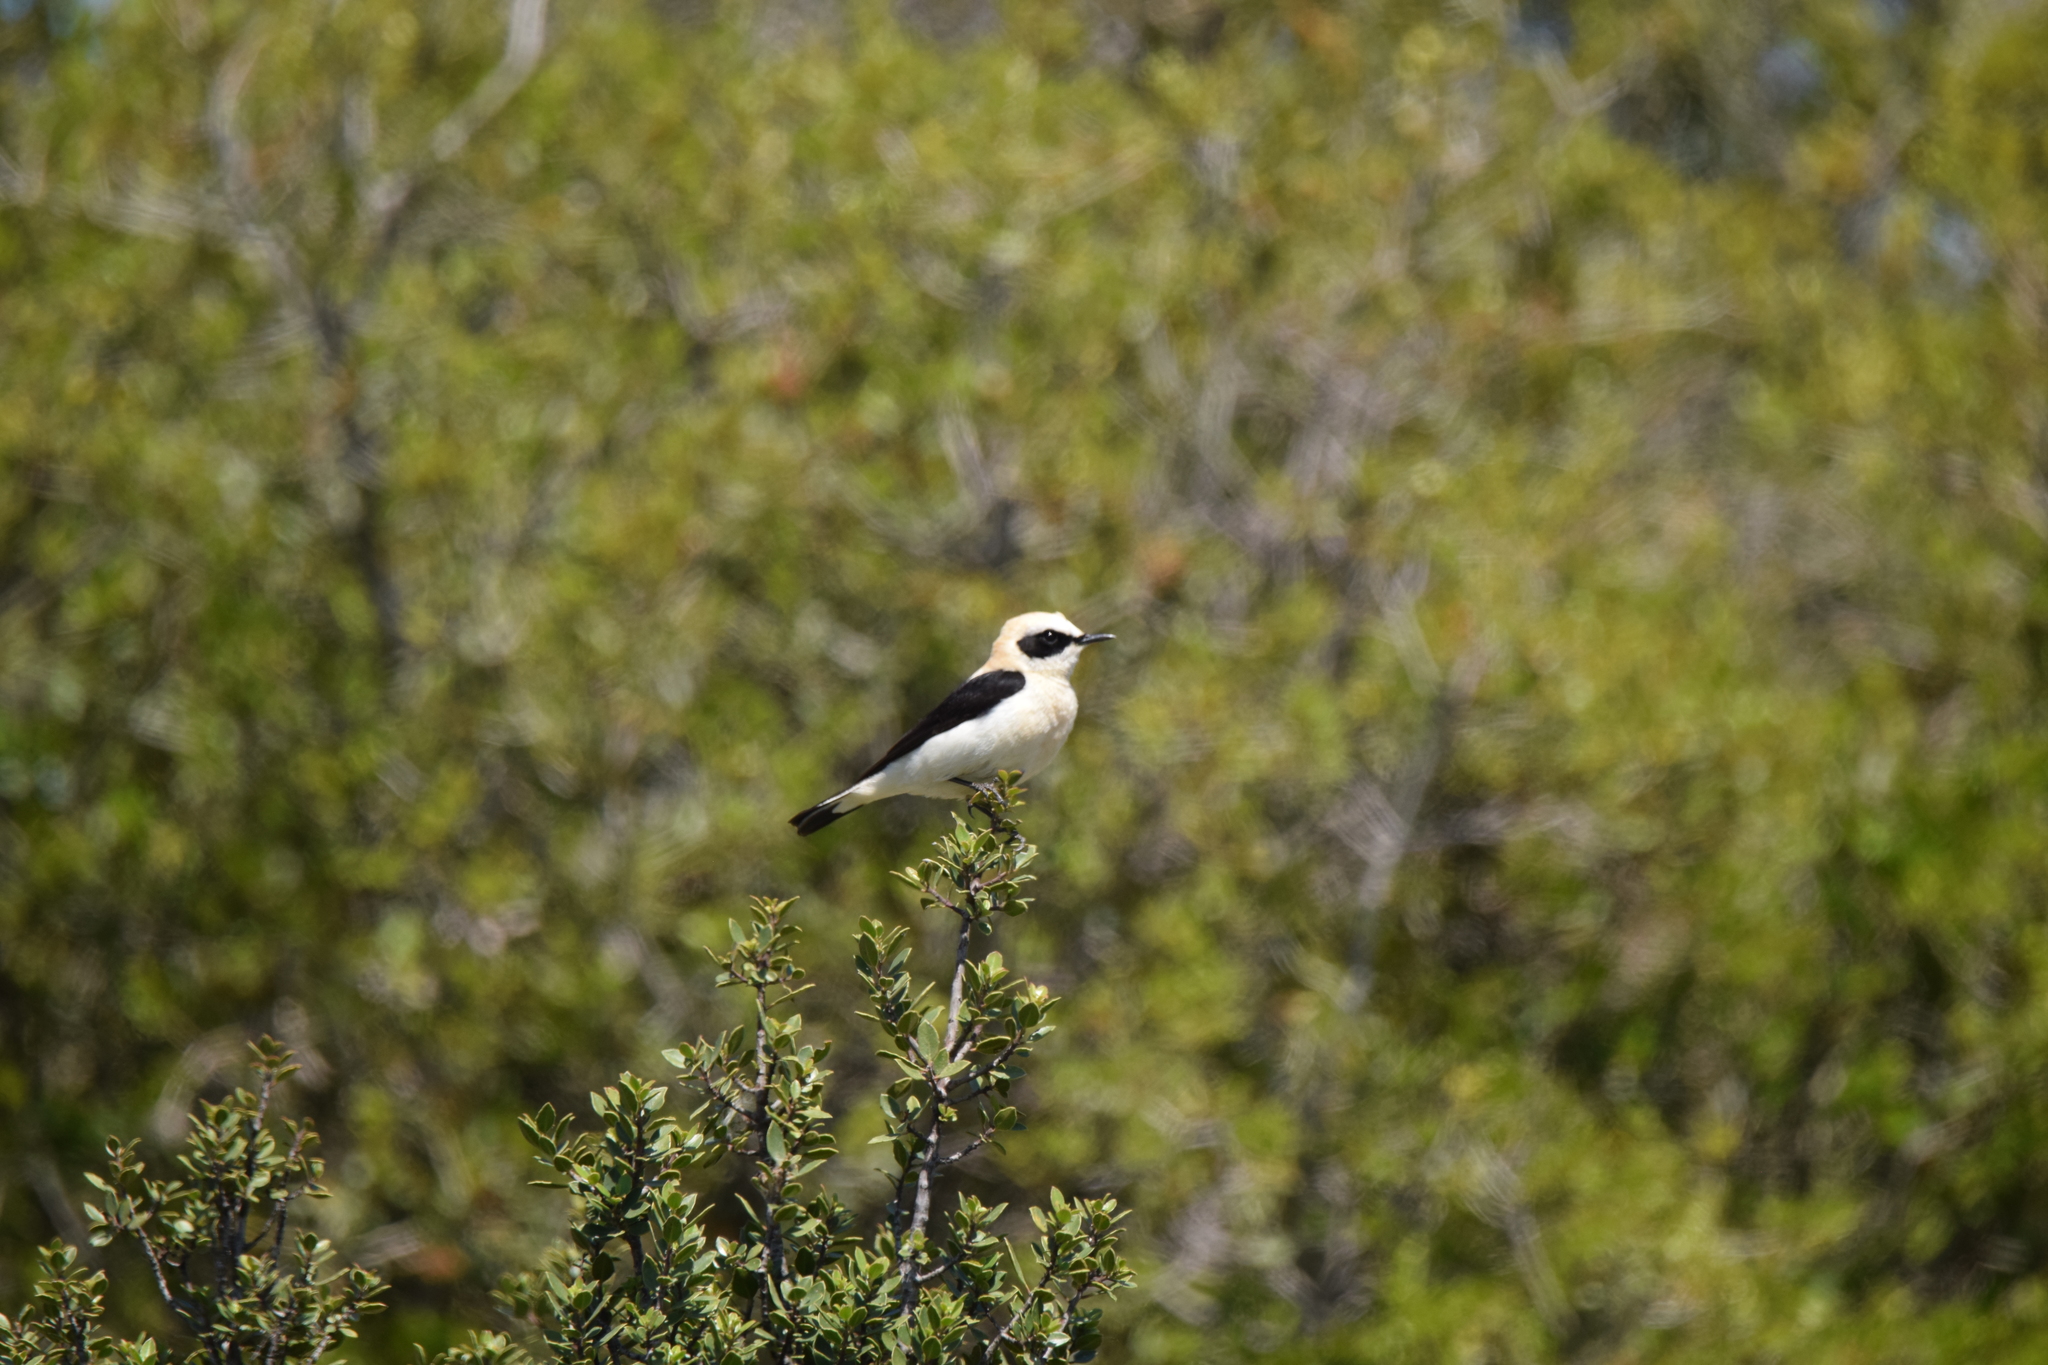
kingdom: Animalia
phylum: Chordata
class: Aves
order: Passeriformes
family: Muscicapidae
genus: Oenanthe
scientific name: Oenanthe hispanica
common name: Black-eared wheatear
